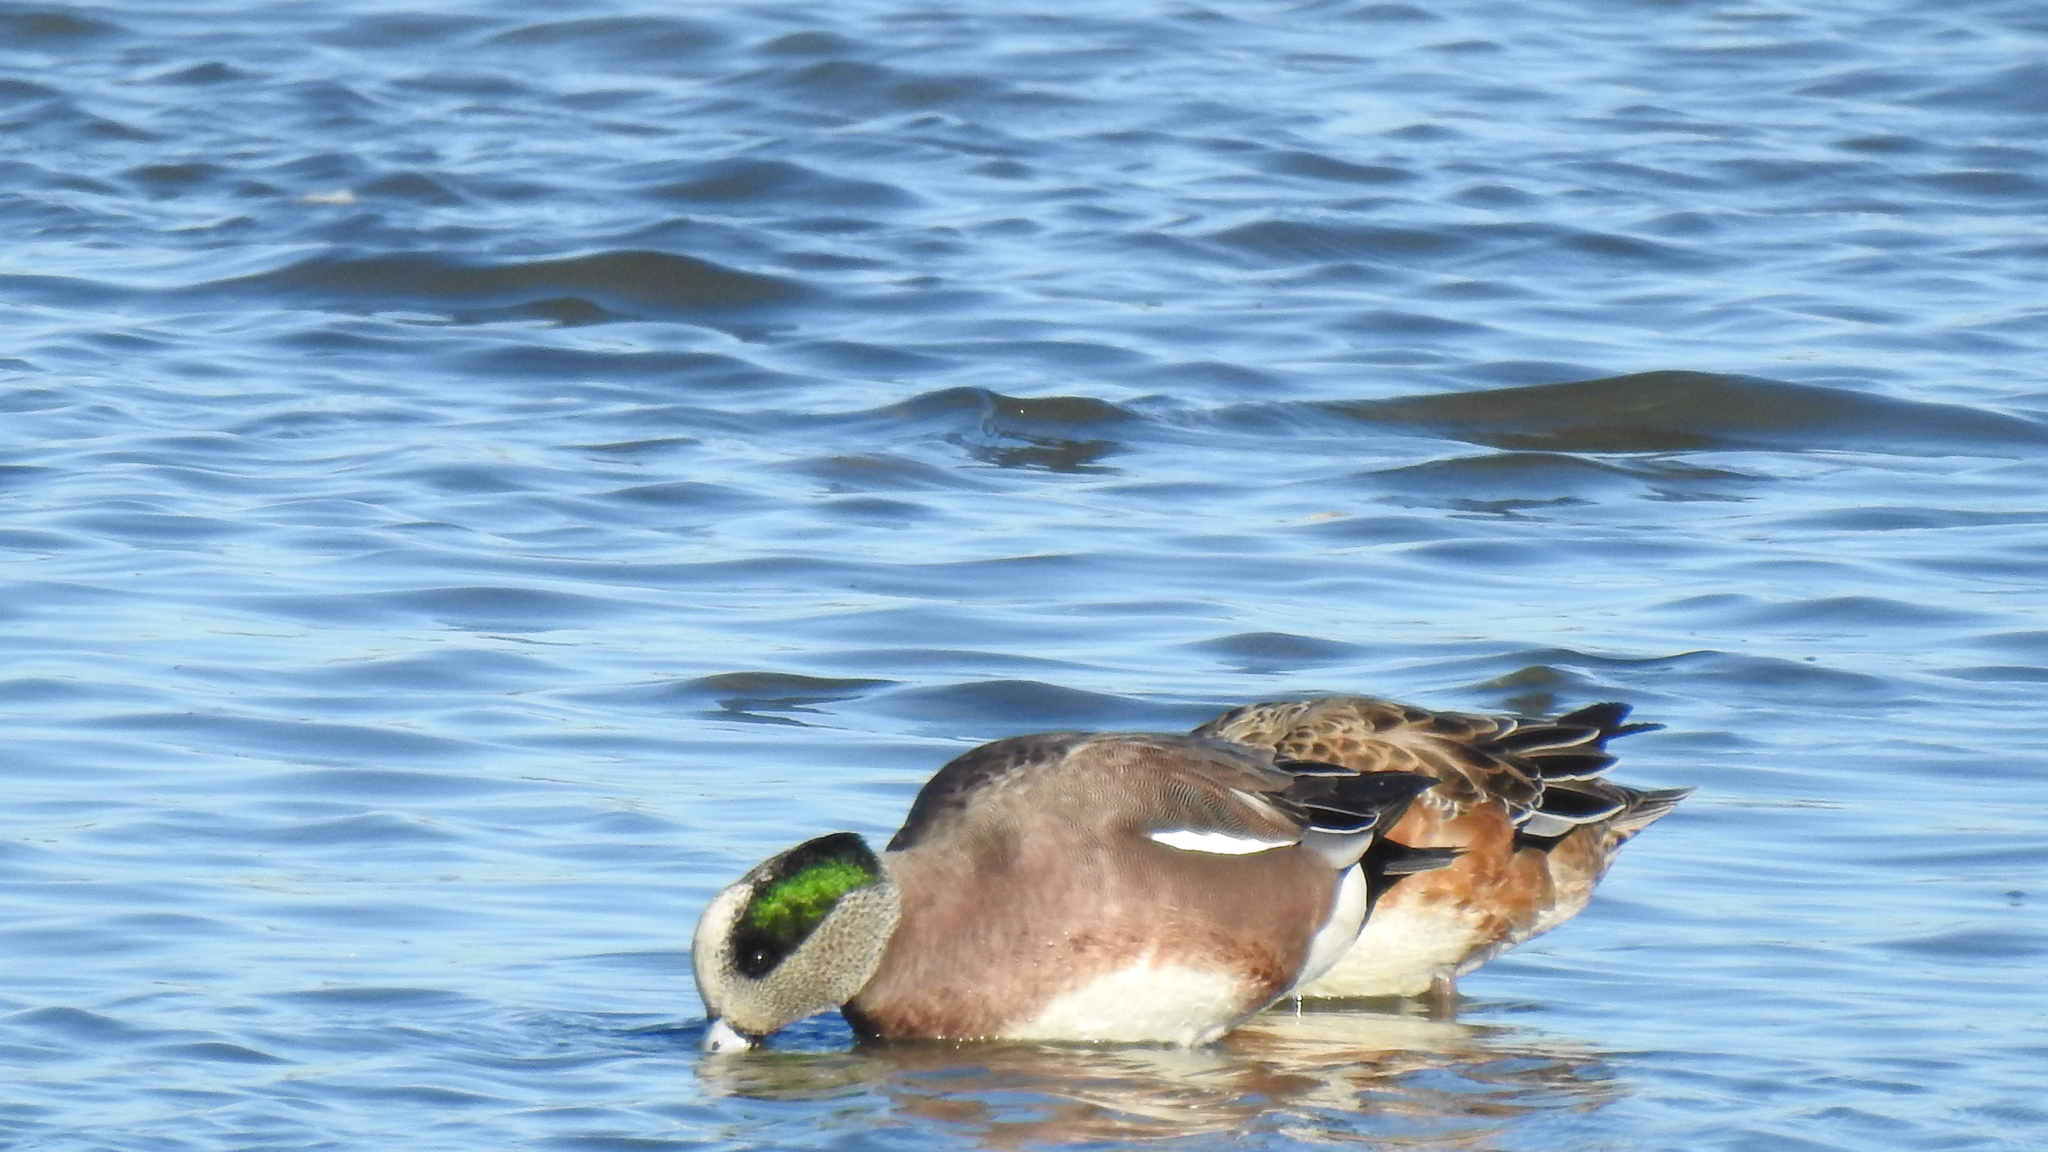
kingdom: Animalia
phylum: Chordata
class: Aves
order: Anseriformes
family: Anatidae
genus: Mareca
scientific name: Mareca americana
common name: American wigeon
